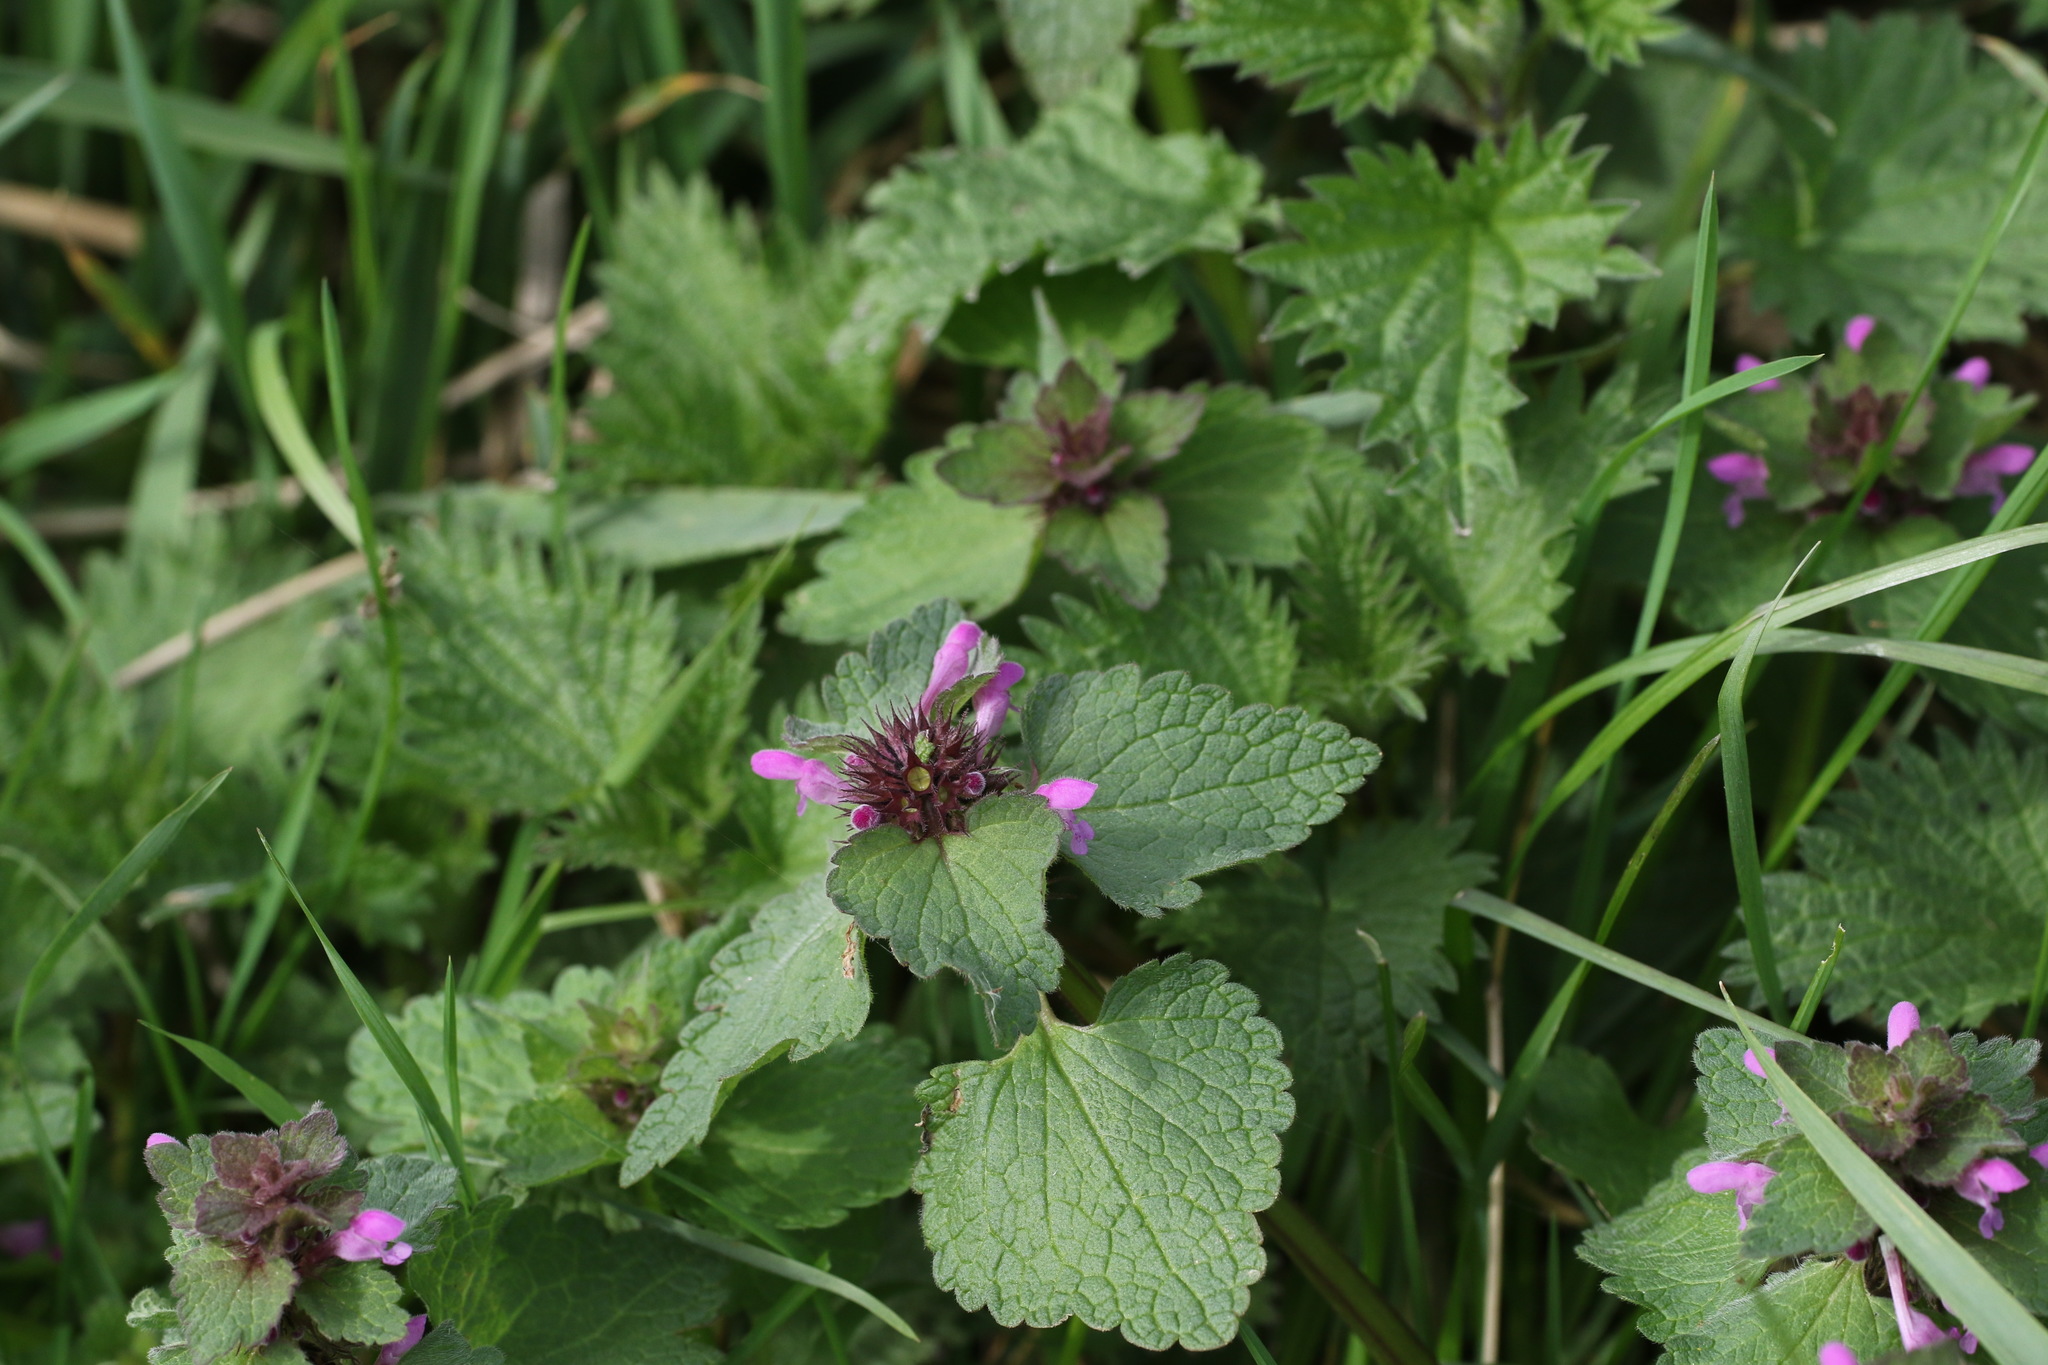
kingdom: Plantae
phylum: Tracheophyta
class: Magnoliopsida
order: Lamiales
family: Lamiaceae
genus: Lamium
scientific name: Lamium purpureum
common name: Red dead-nettle
